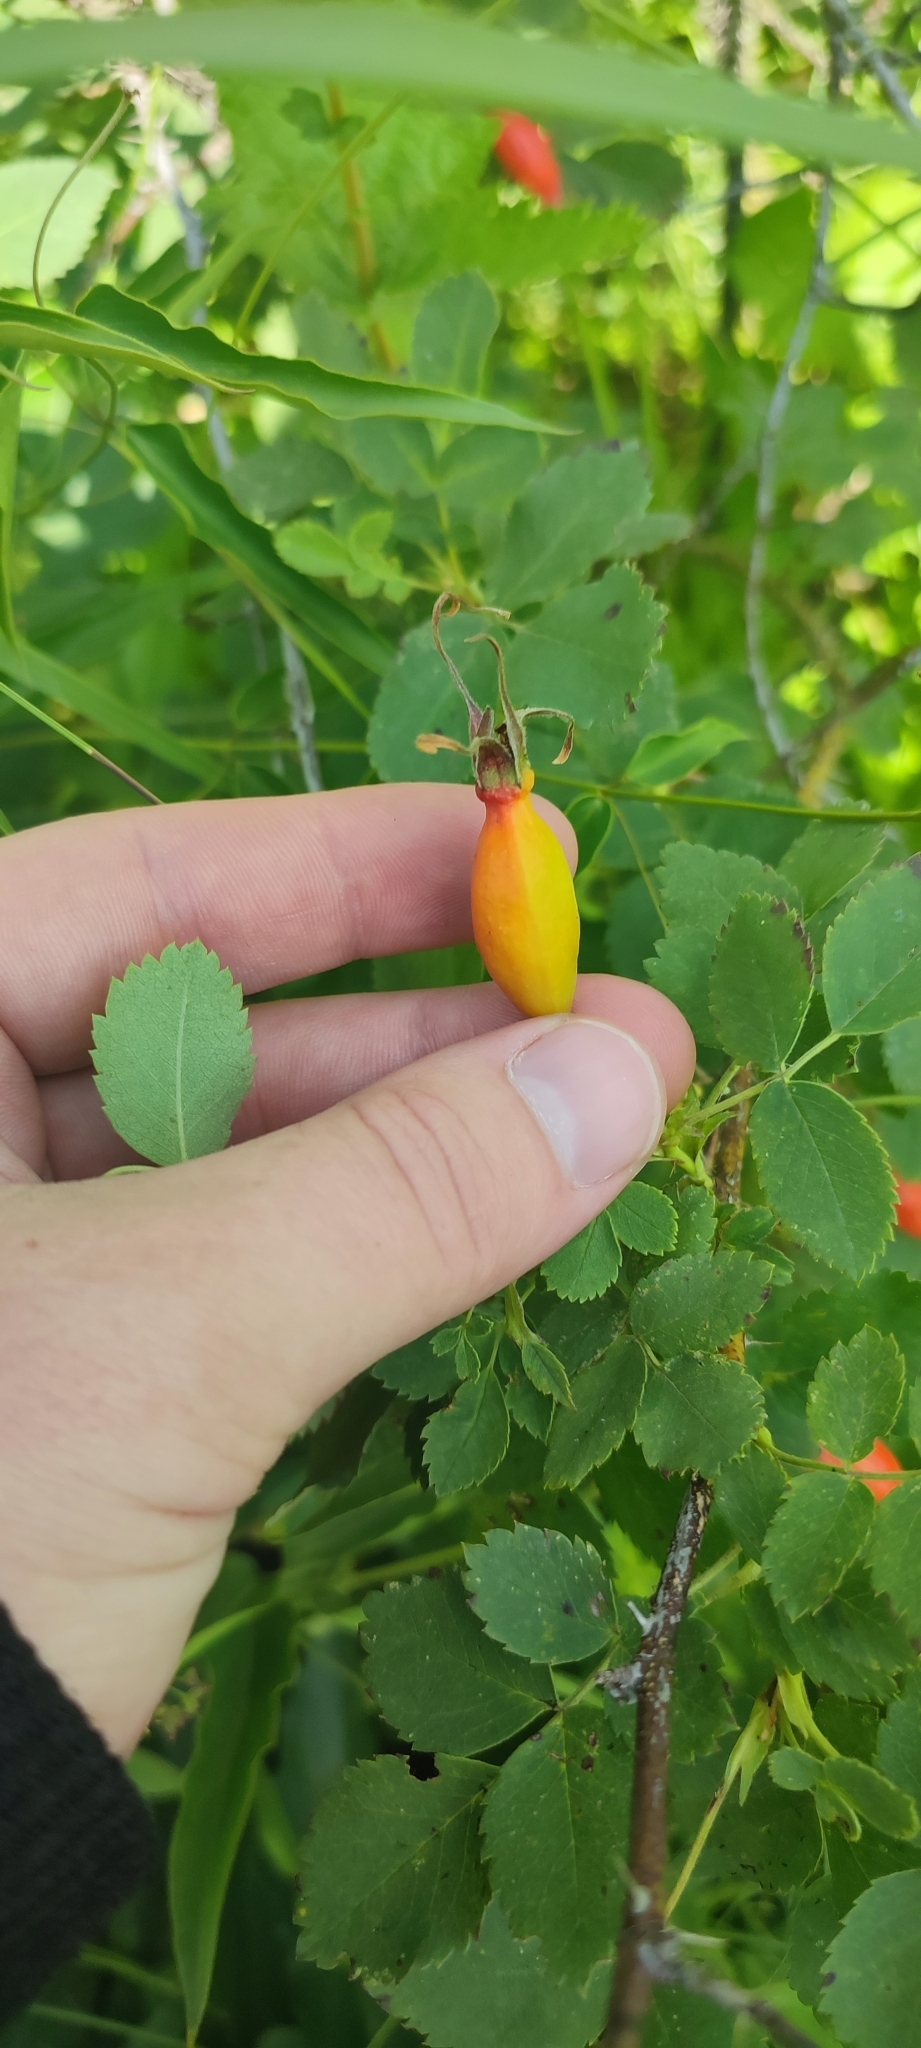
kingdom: Plantae
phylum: Tracheophyta
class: Magnoliopsida
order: Rosales
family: Rosaceae
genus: Rosa
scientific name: Rosa acicularis
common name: Prickly rose
